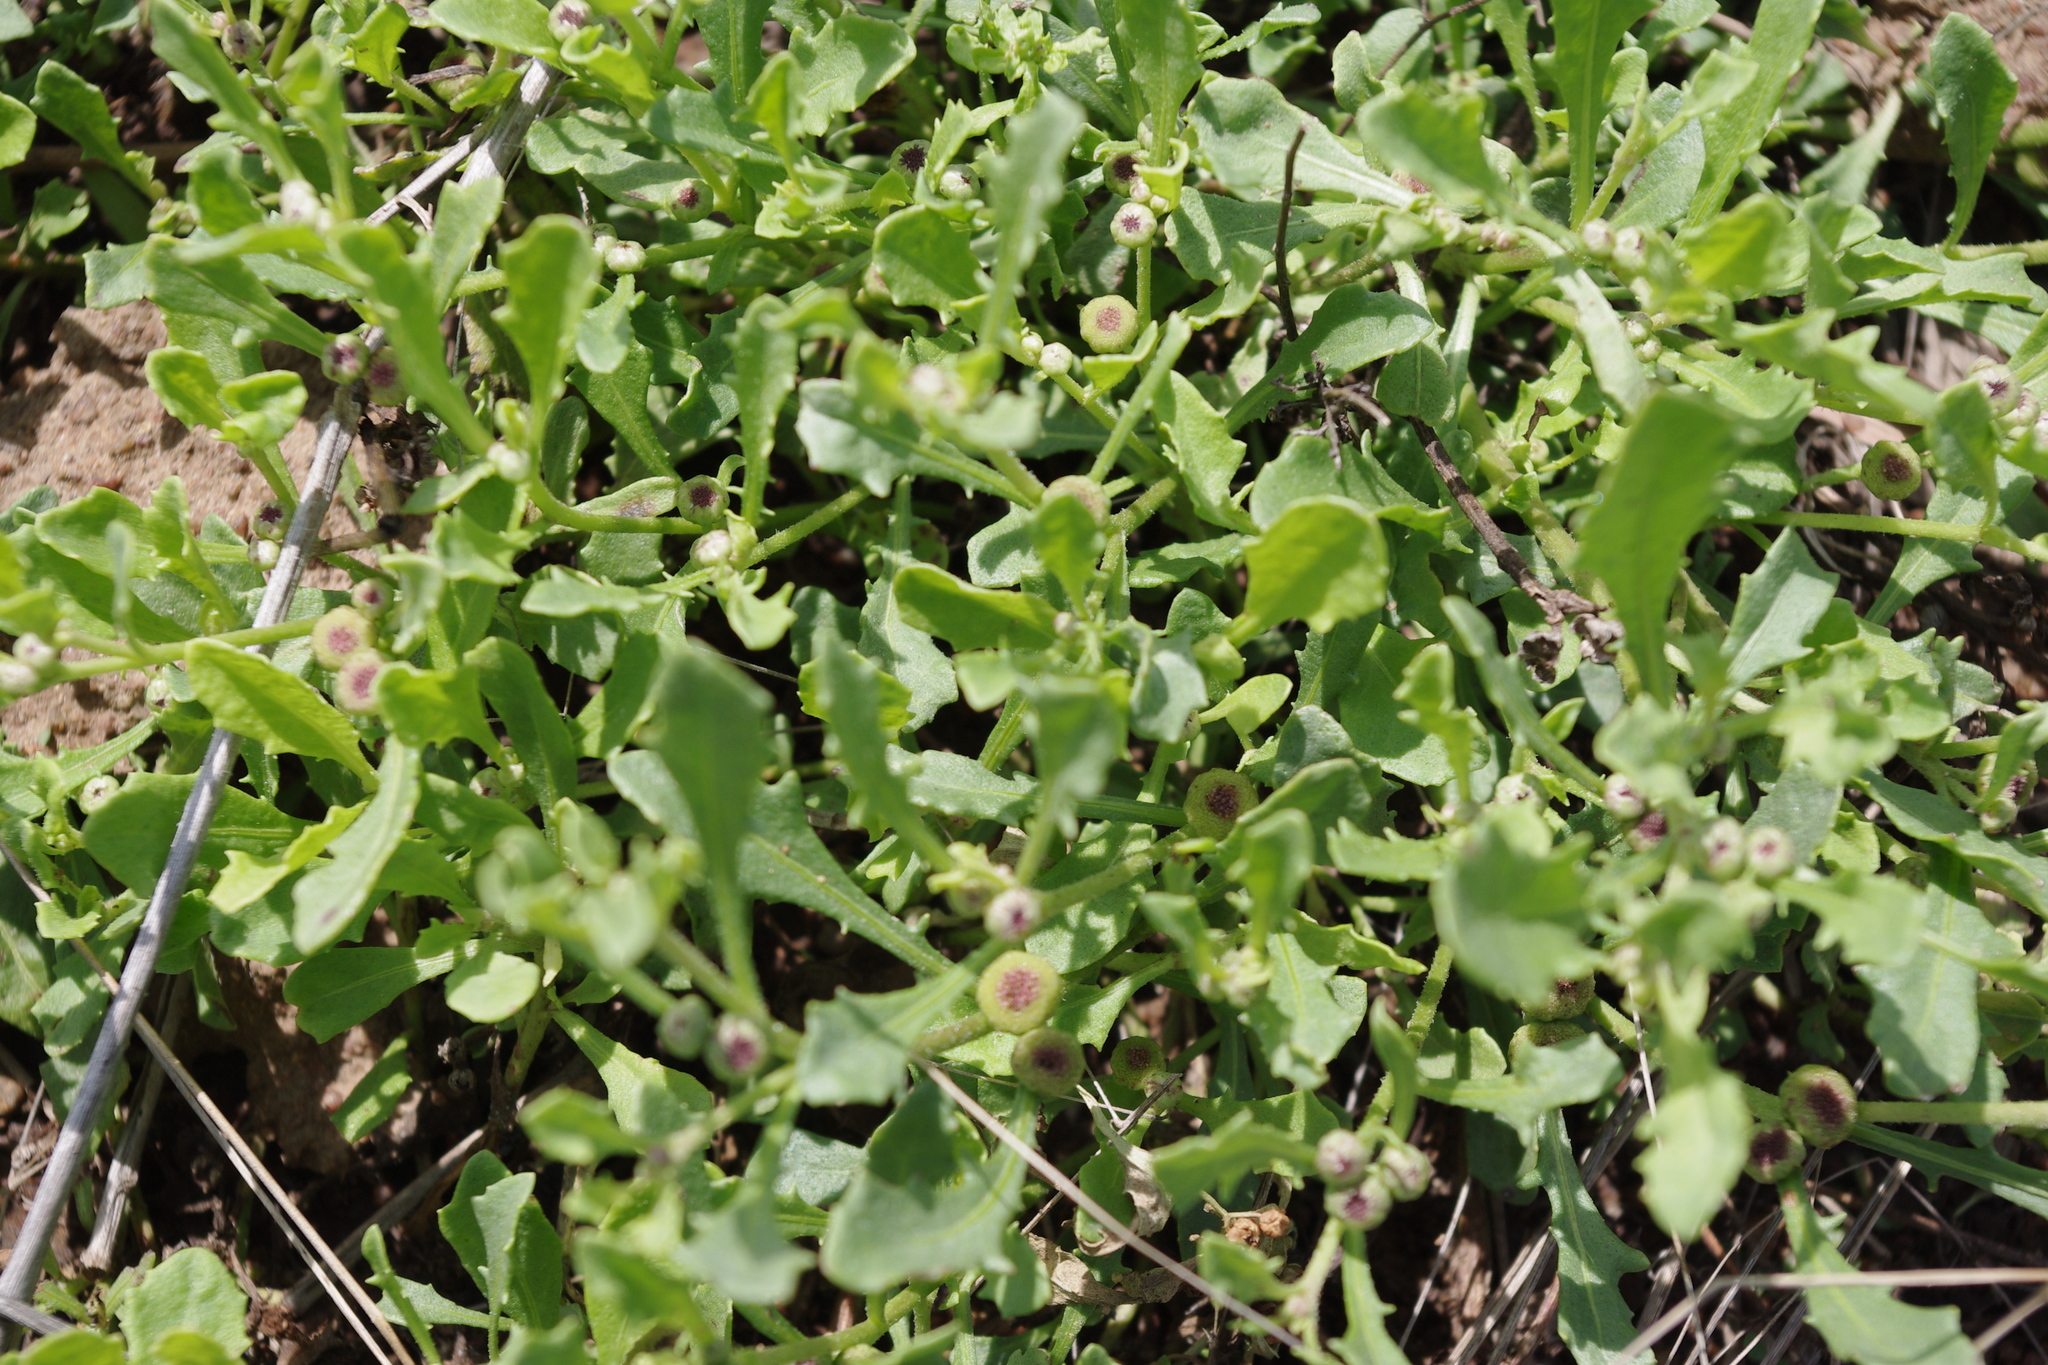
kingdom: Plantae
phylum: Tracheophyta
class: Magnoliopsida
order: Asterales
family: Asteraceae
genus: Sphaeromorphaea
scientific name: Sphaeromorphaea australis
